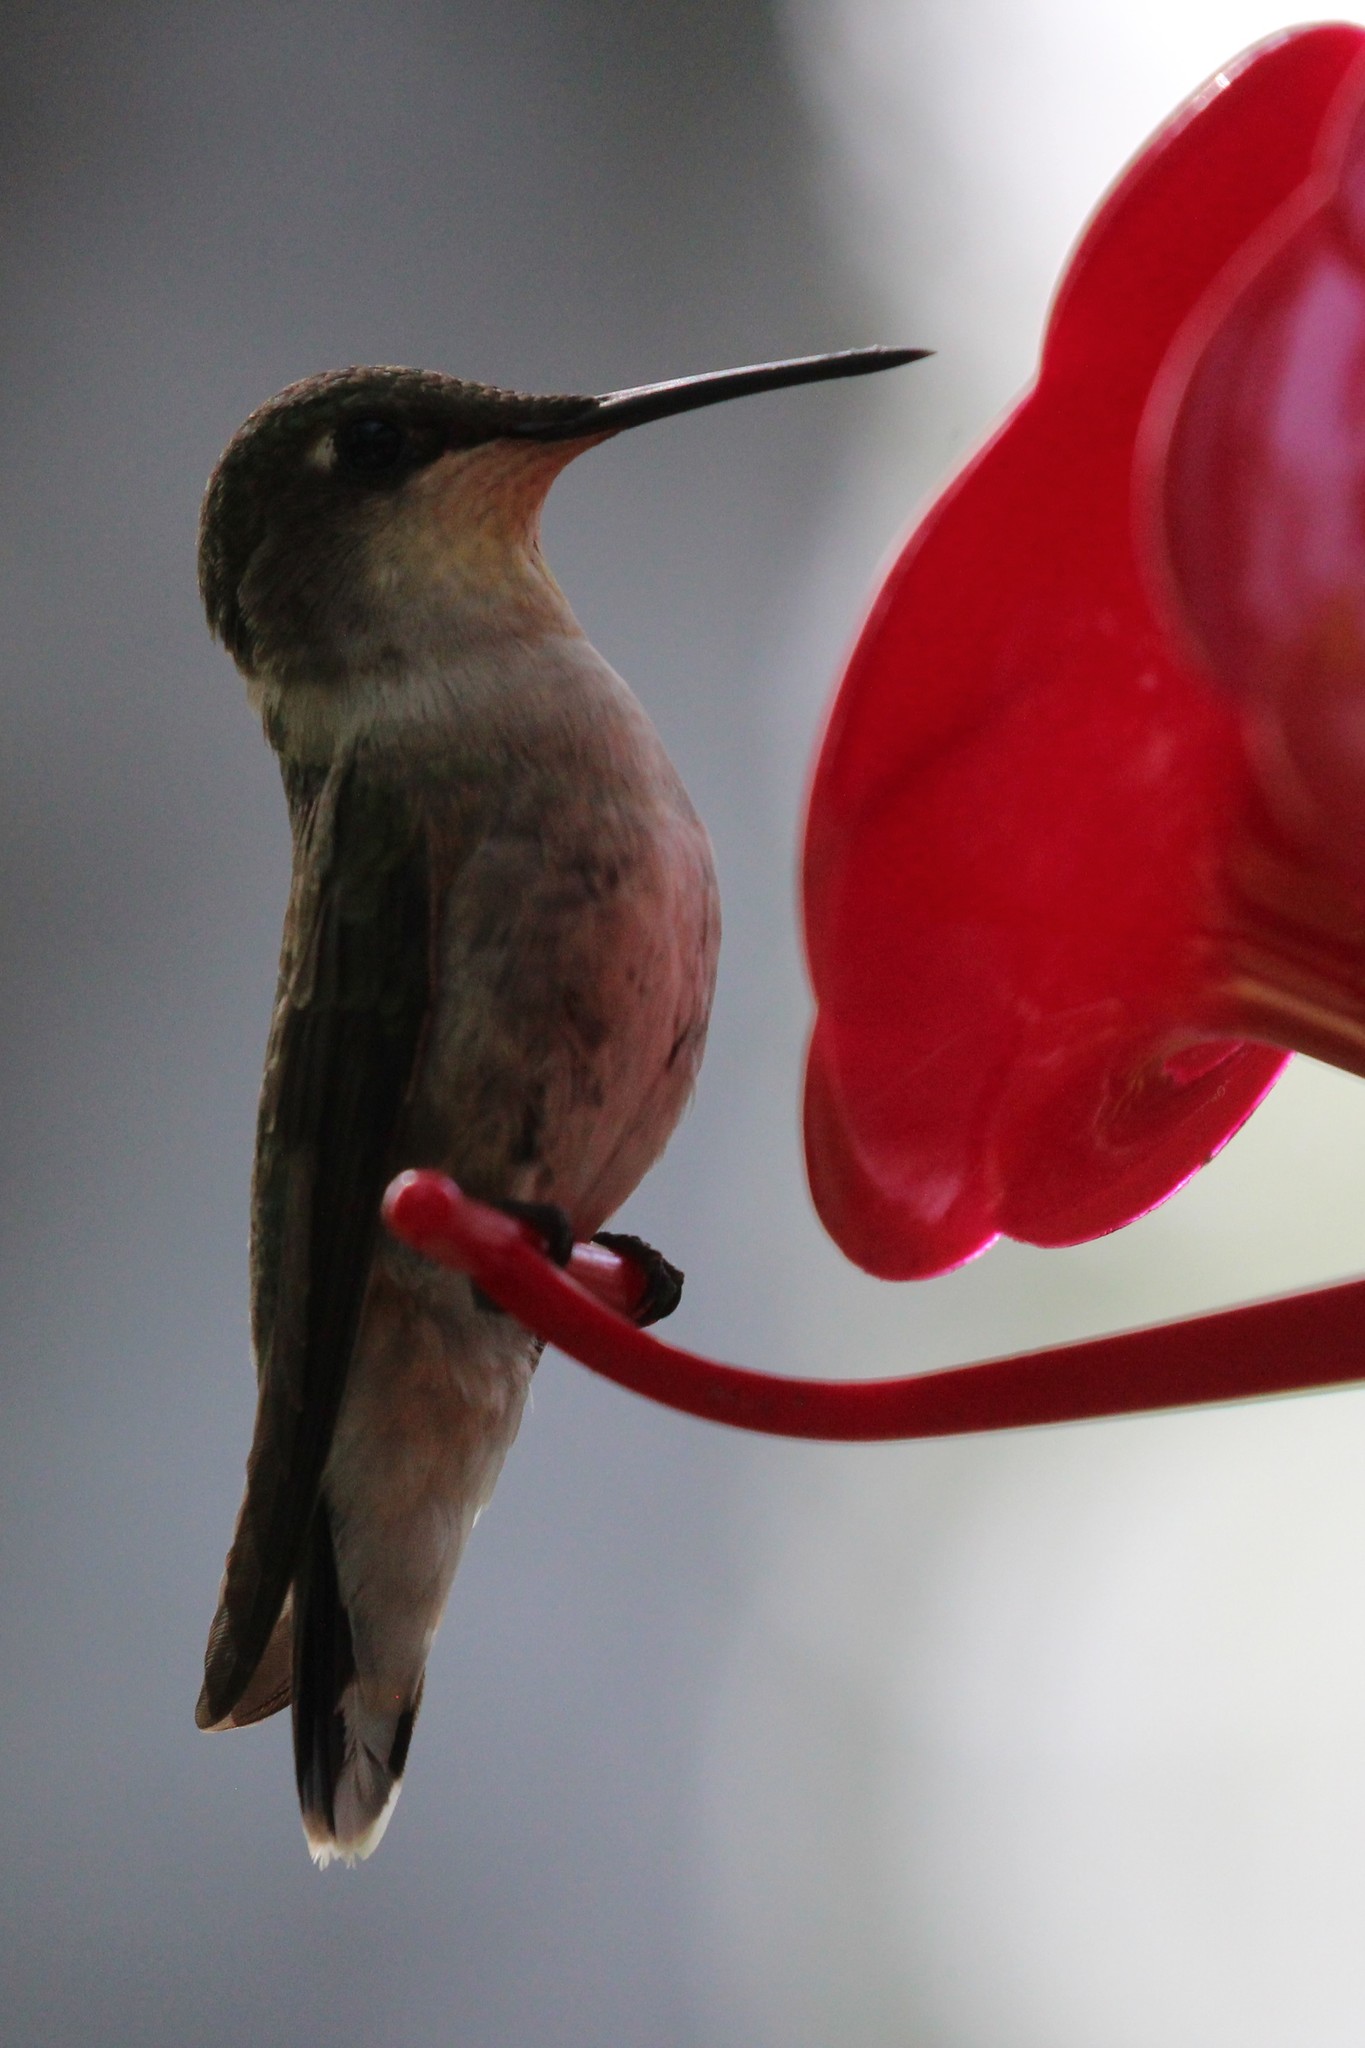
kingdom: Animalia
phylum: Chordata
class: Aves
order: Apodiformes
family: Trochilidae
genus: Archilochus
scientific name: Archilochus colubris
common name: Ruby-throated hummingbird
